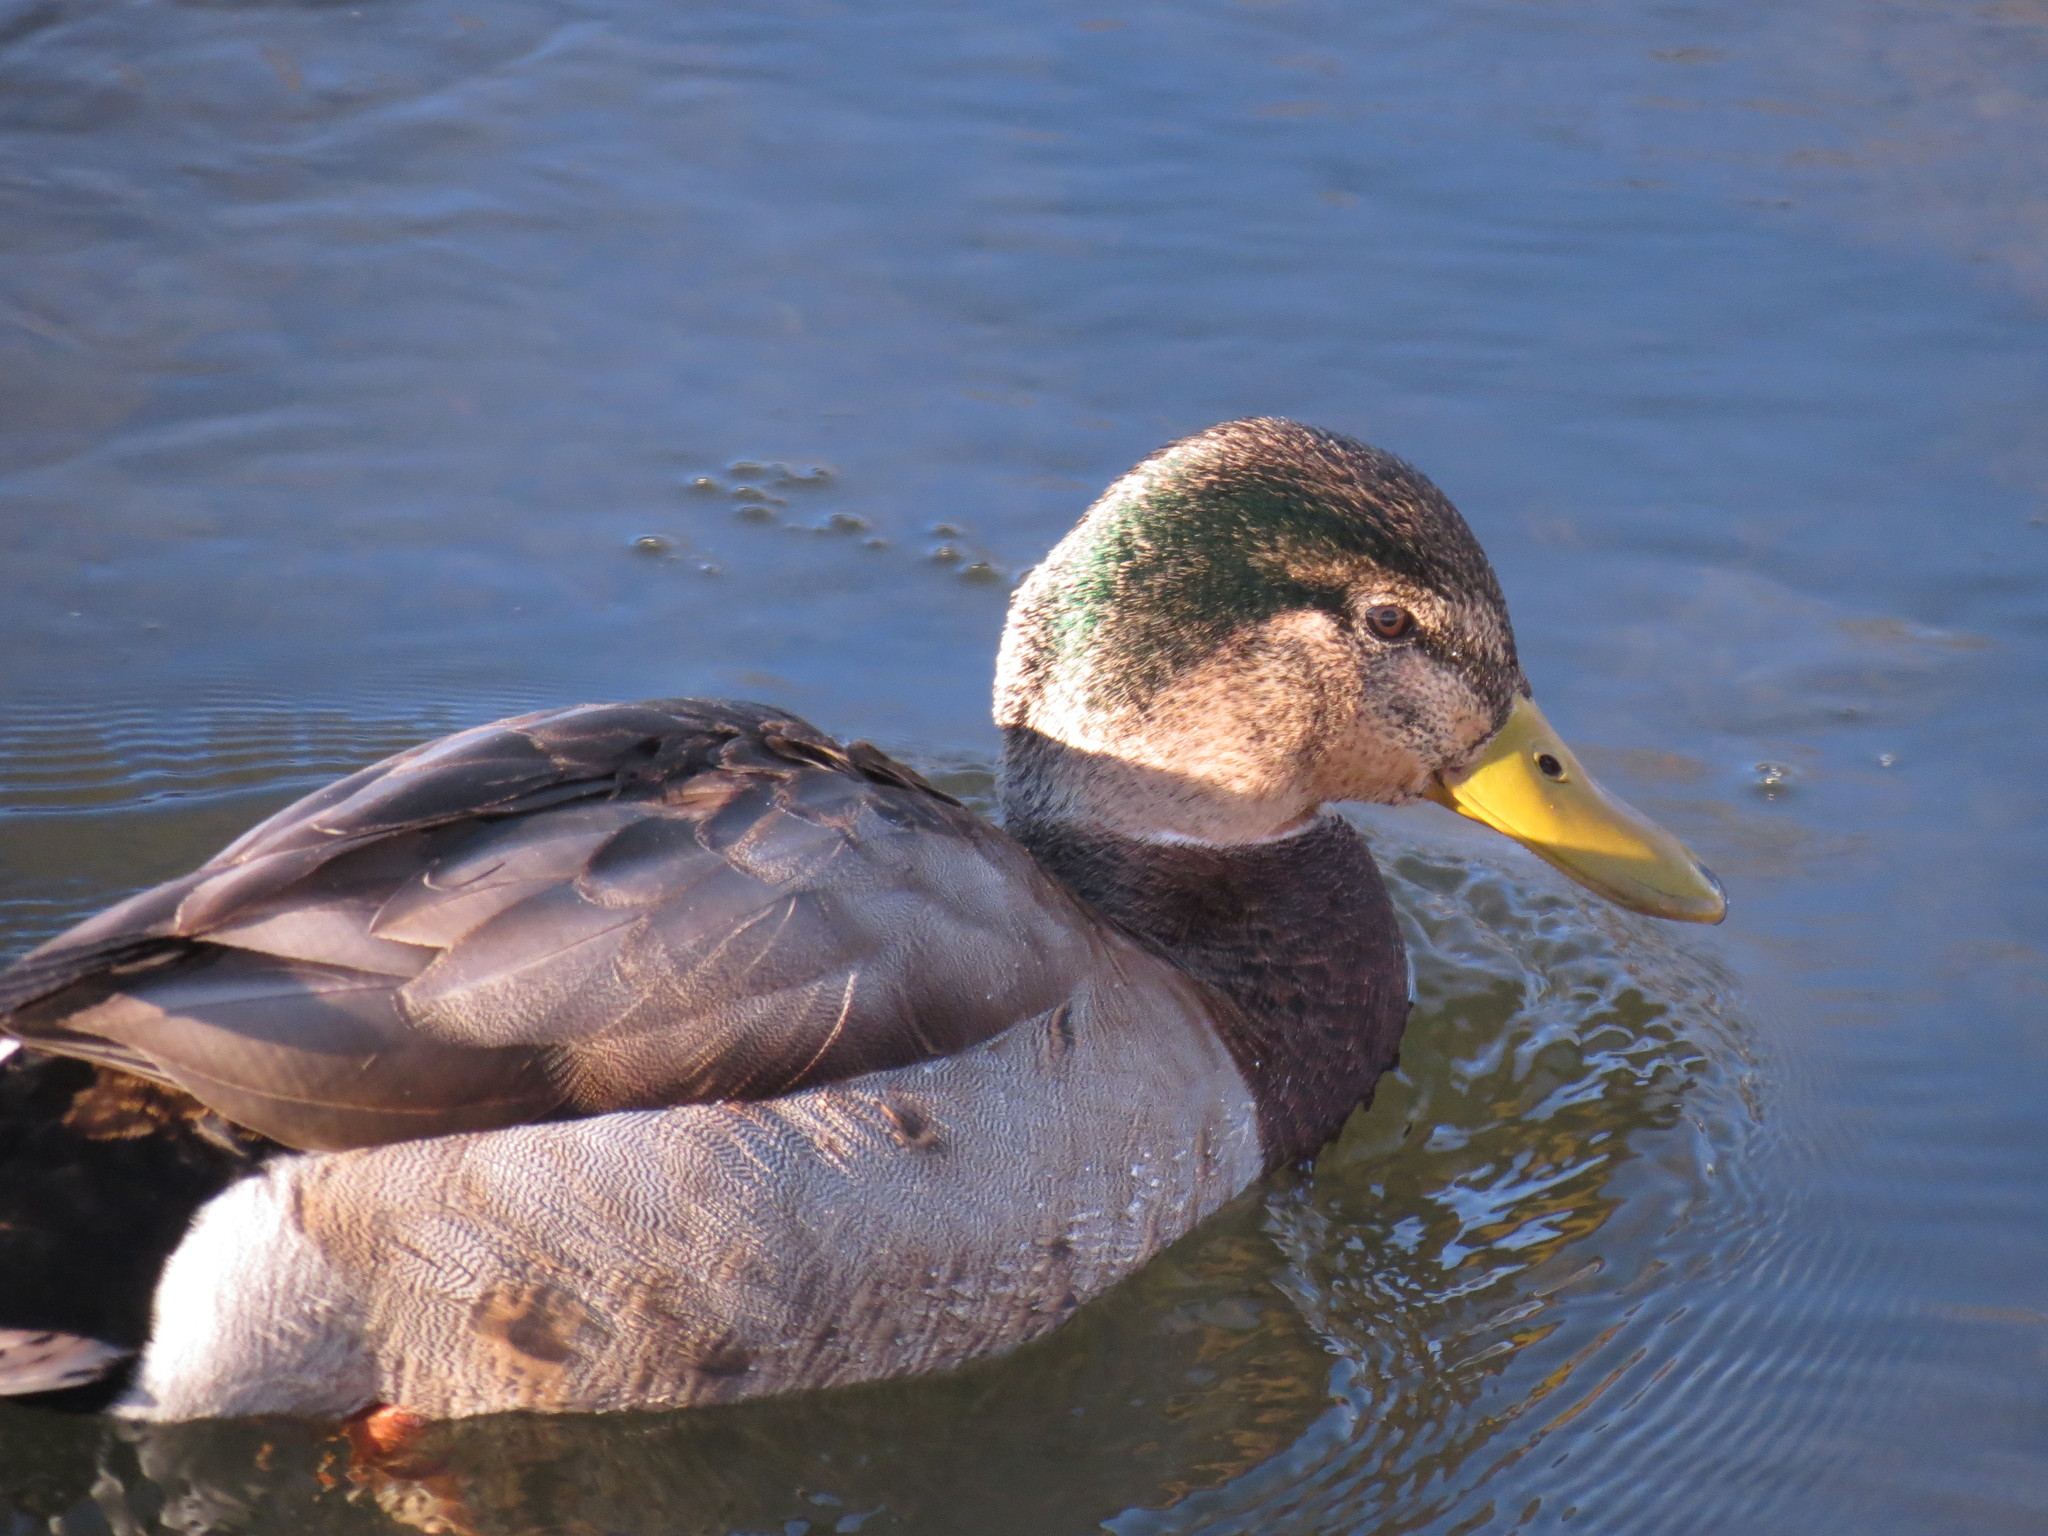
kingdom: Animalia
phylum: Chordata
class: Aves
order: Anseriformes
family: Anatidae
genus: Anas
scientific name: Anas platyrhynchos
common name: Mallard
